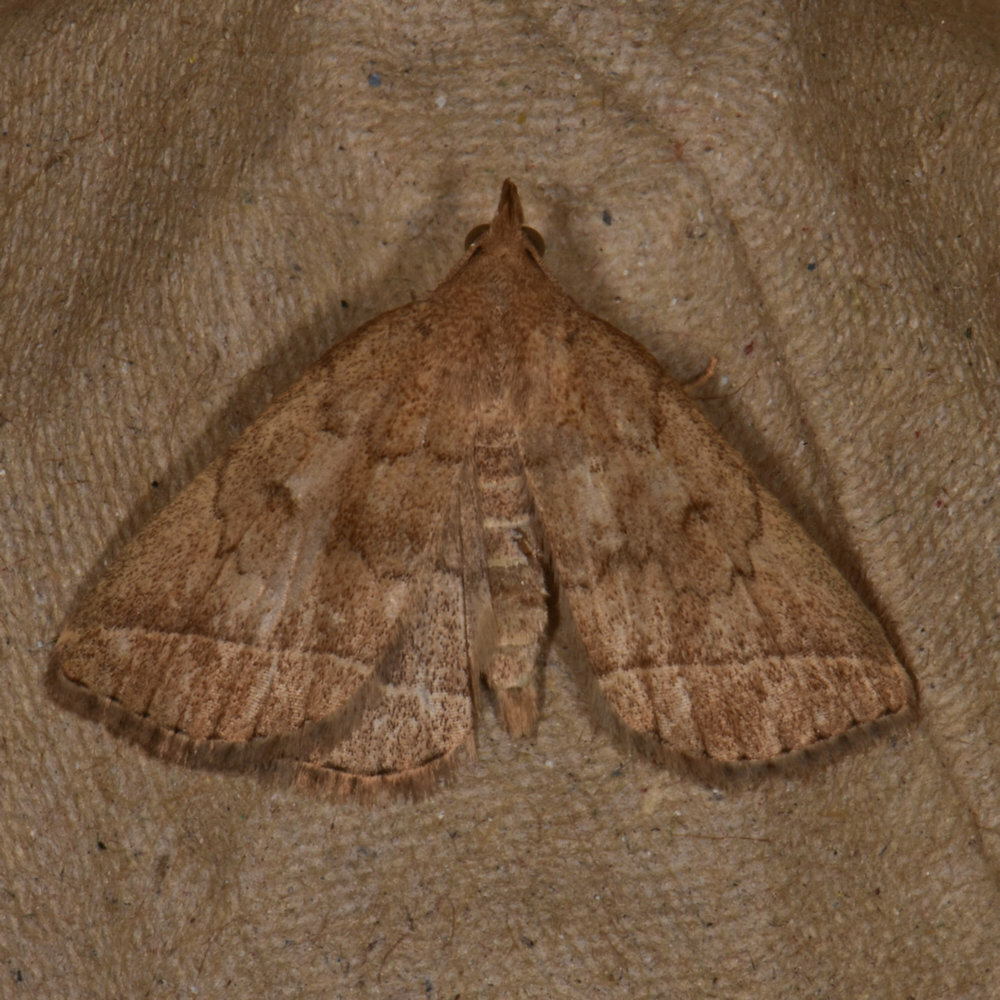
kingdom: Animalia
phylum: Arthropoda
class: Insecta
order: Lepidoptera
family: Erebidae
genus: Zanclognatha
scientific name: Zanclognatha jacchusalis
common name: Yellowish zanclognatha
